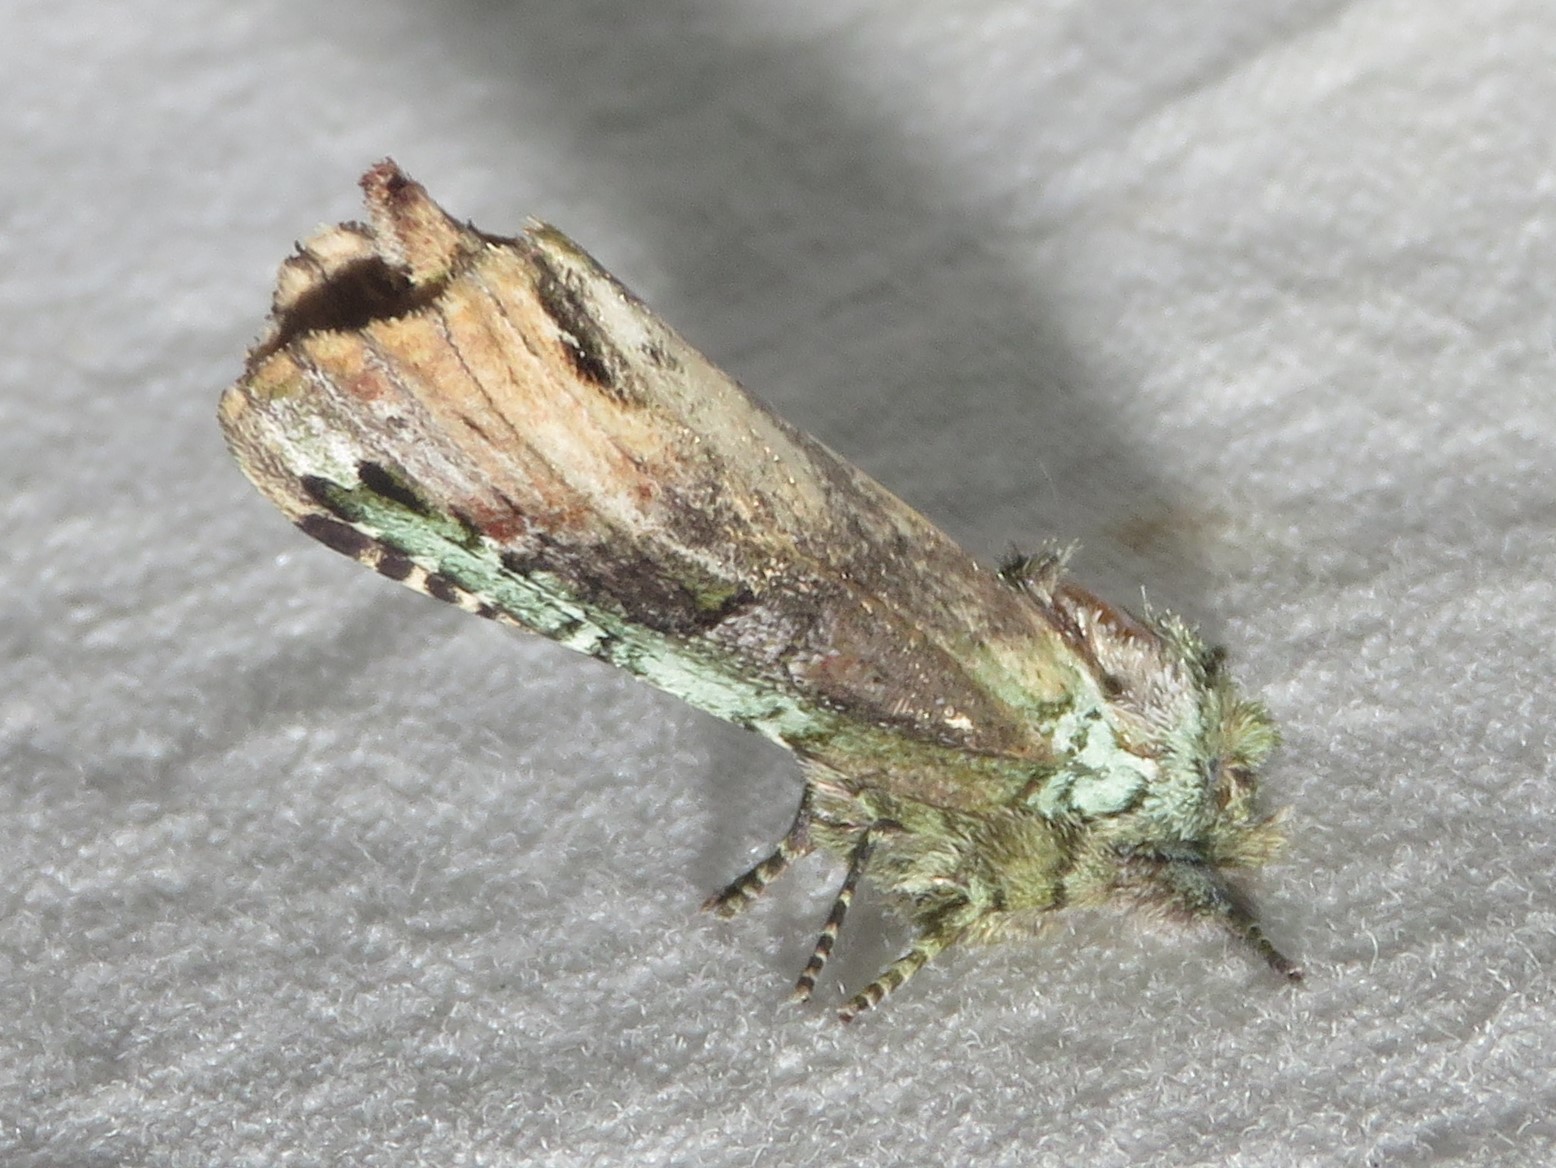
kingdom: Animalia
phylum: Arthropoda
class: Insecta
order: Lepidoptera
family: Notodontidae
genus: Schizura
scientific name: Schizura
